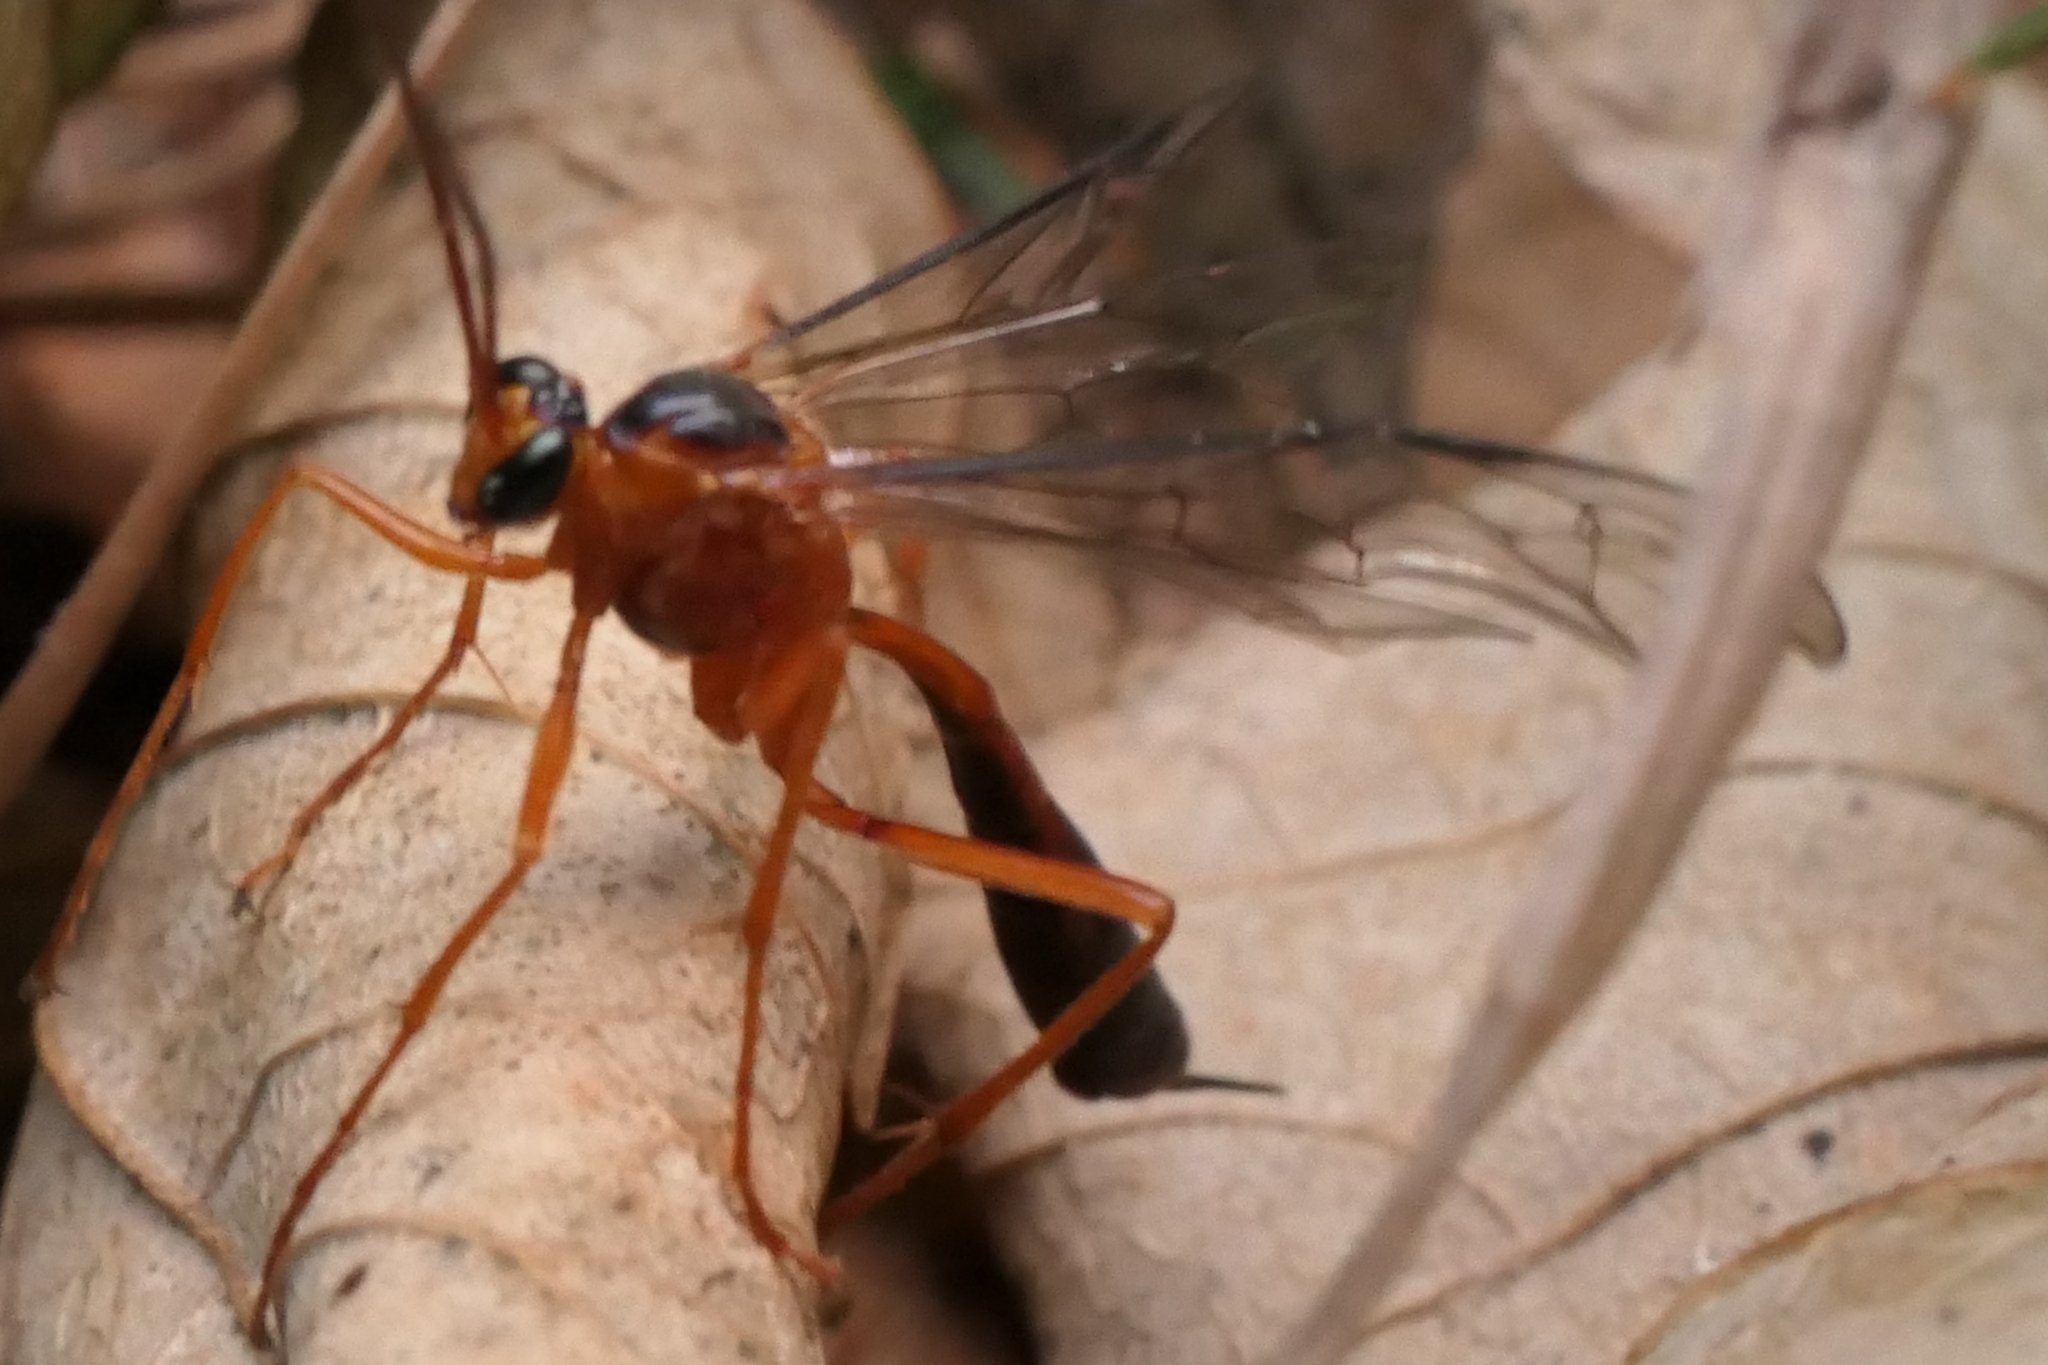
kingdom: Animalia
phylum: Arthropoda
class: Insecta
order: Hymenoptera
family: Ichneumonidae
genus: Netelia
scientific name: Netelia ephippiata
